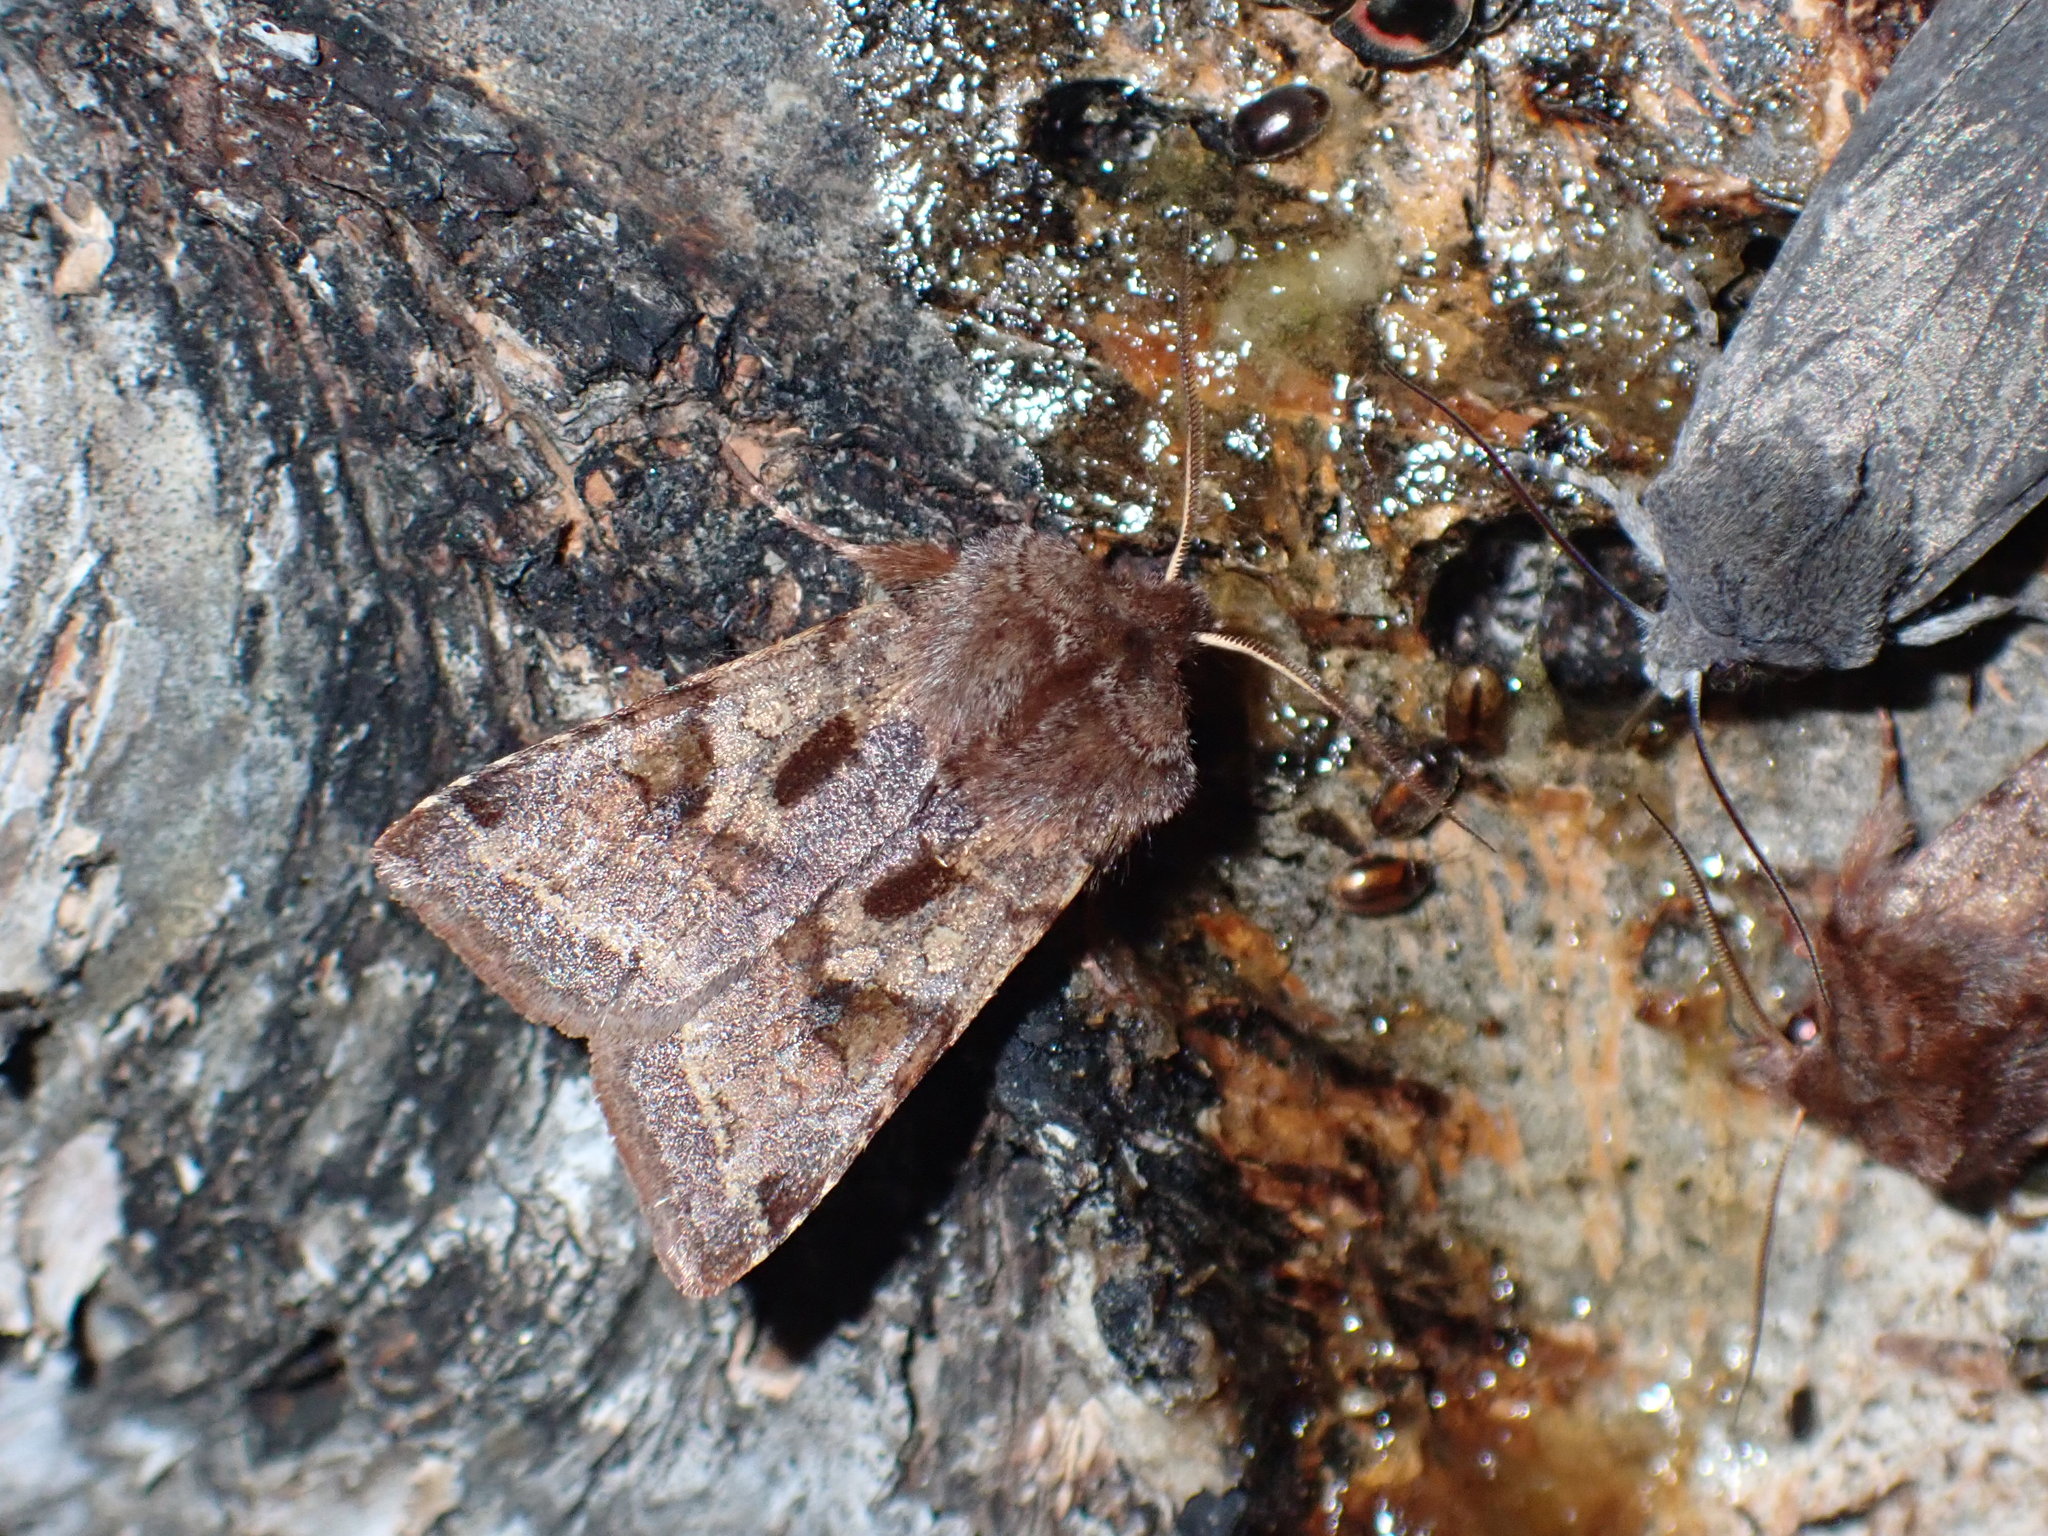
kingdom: Animalia
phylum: Arthropoda
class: Insecta
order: Lepidoptera
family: Noctuidae
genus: Cerastis
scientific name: Cerastis salicarum
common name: Willow dart
